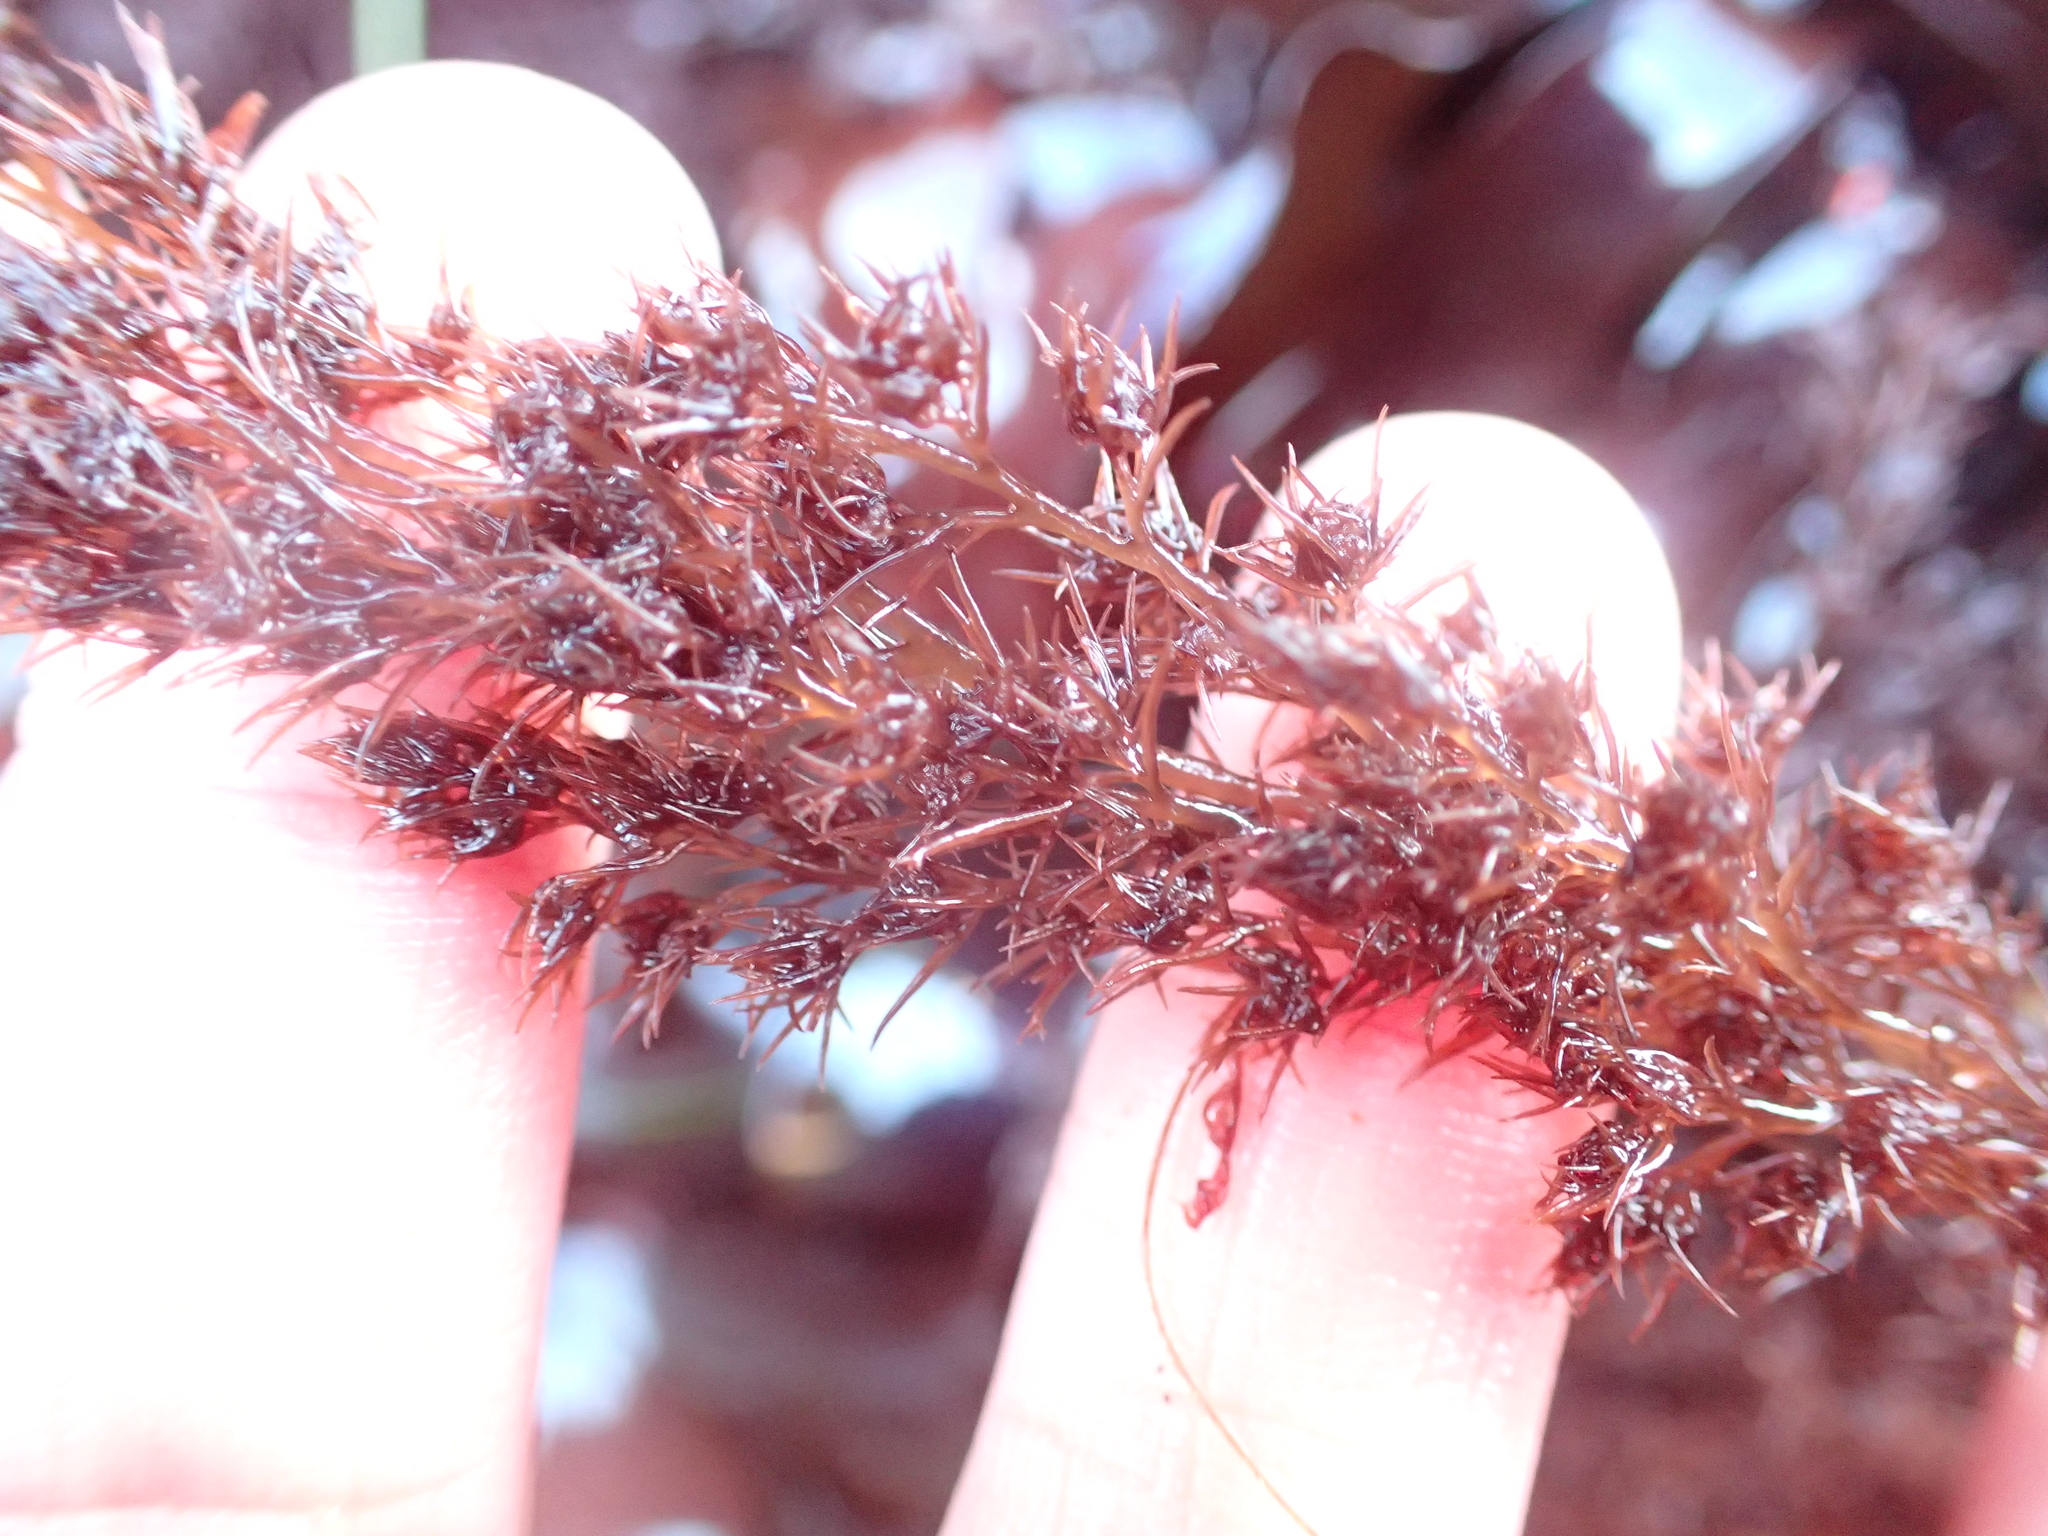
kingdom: Plantae
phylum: Rhodophyta
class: Florideophyceae
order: Ceramiales
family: Rhodomelaceae
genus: Odonthalia
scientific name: Odonthalia floccosa
